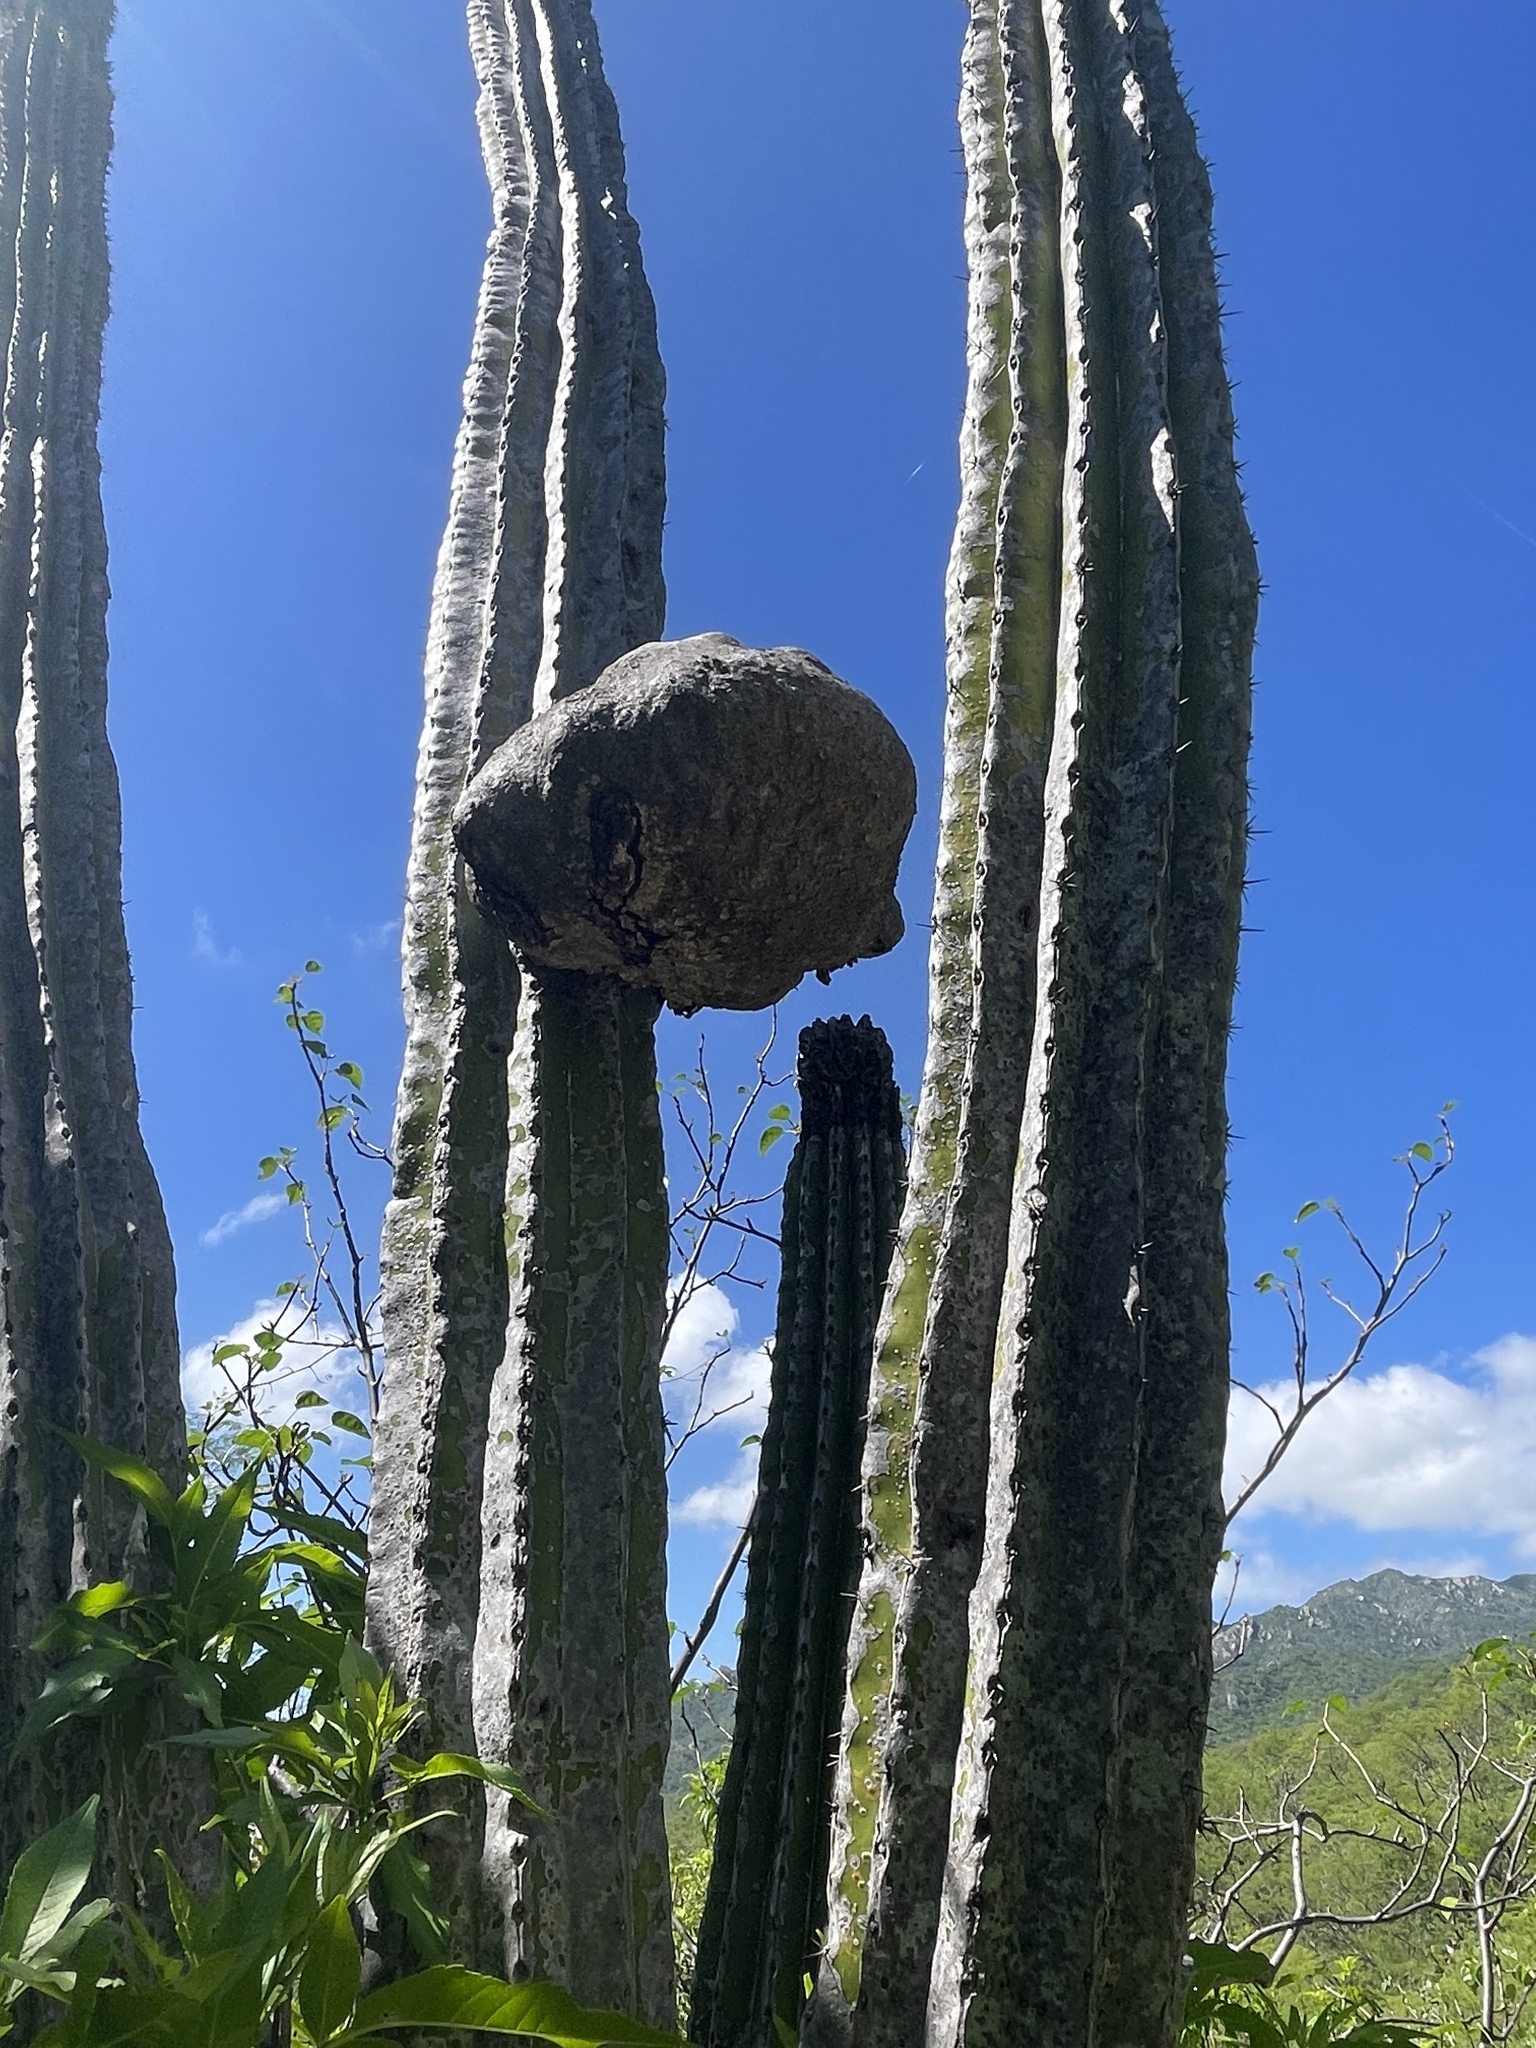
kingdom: Plantae
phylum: Tracheophyta
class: Magnoliopsida
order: Caryophyllales
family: Cactaceae
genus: Pachycereus
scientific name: Pachycereus pecten-aboriginum
